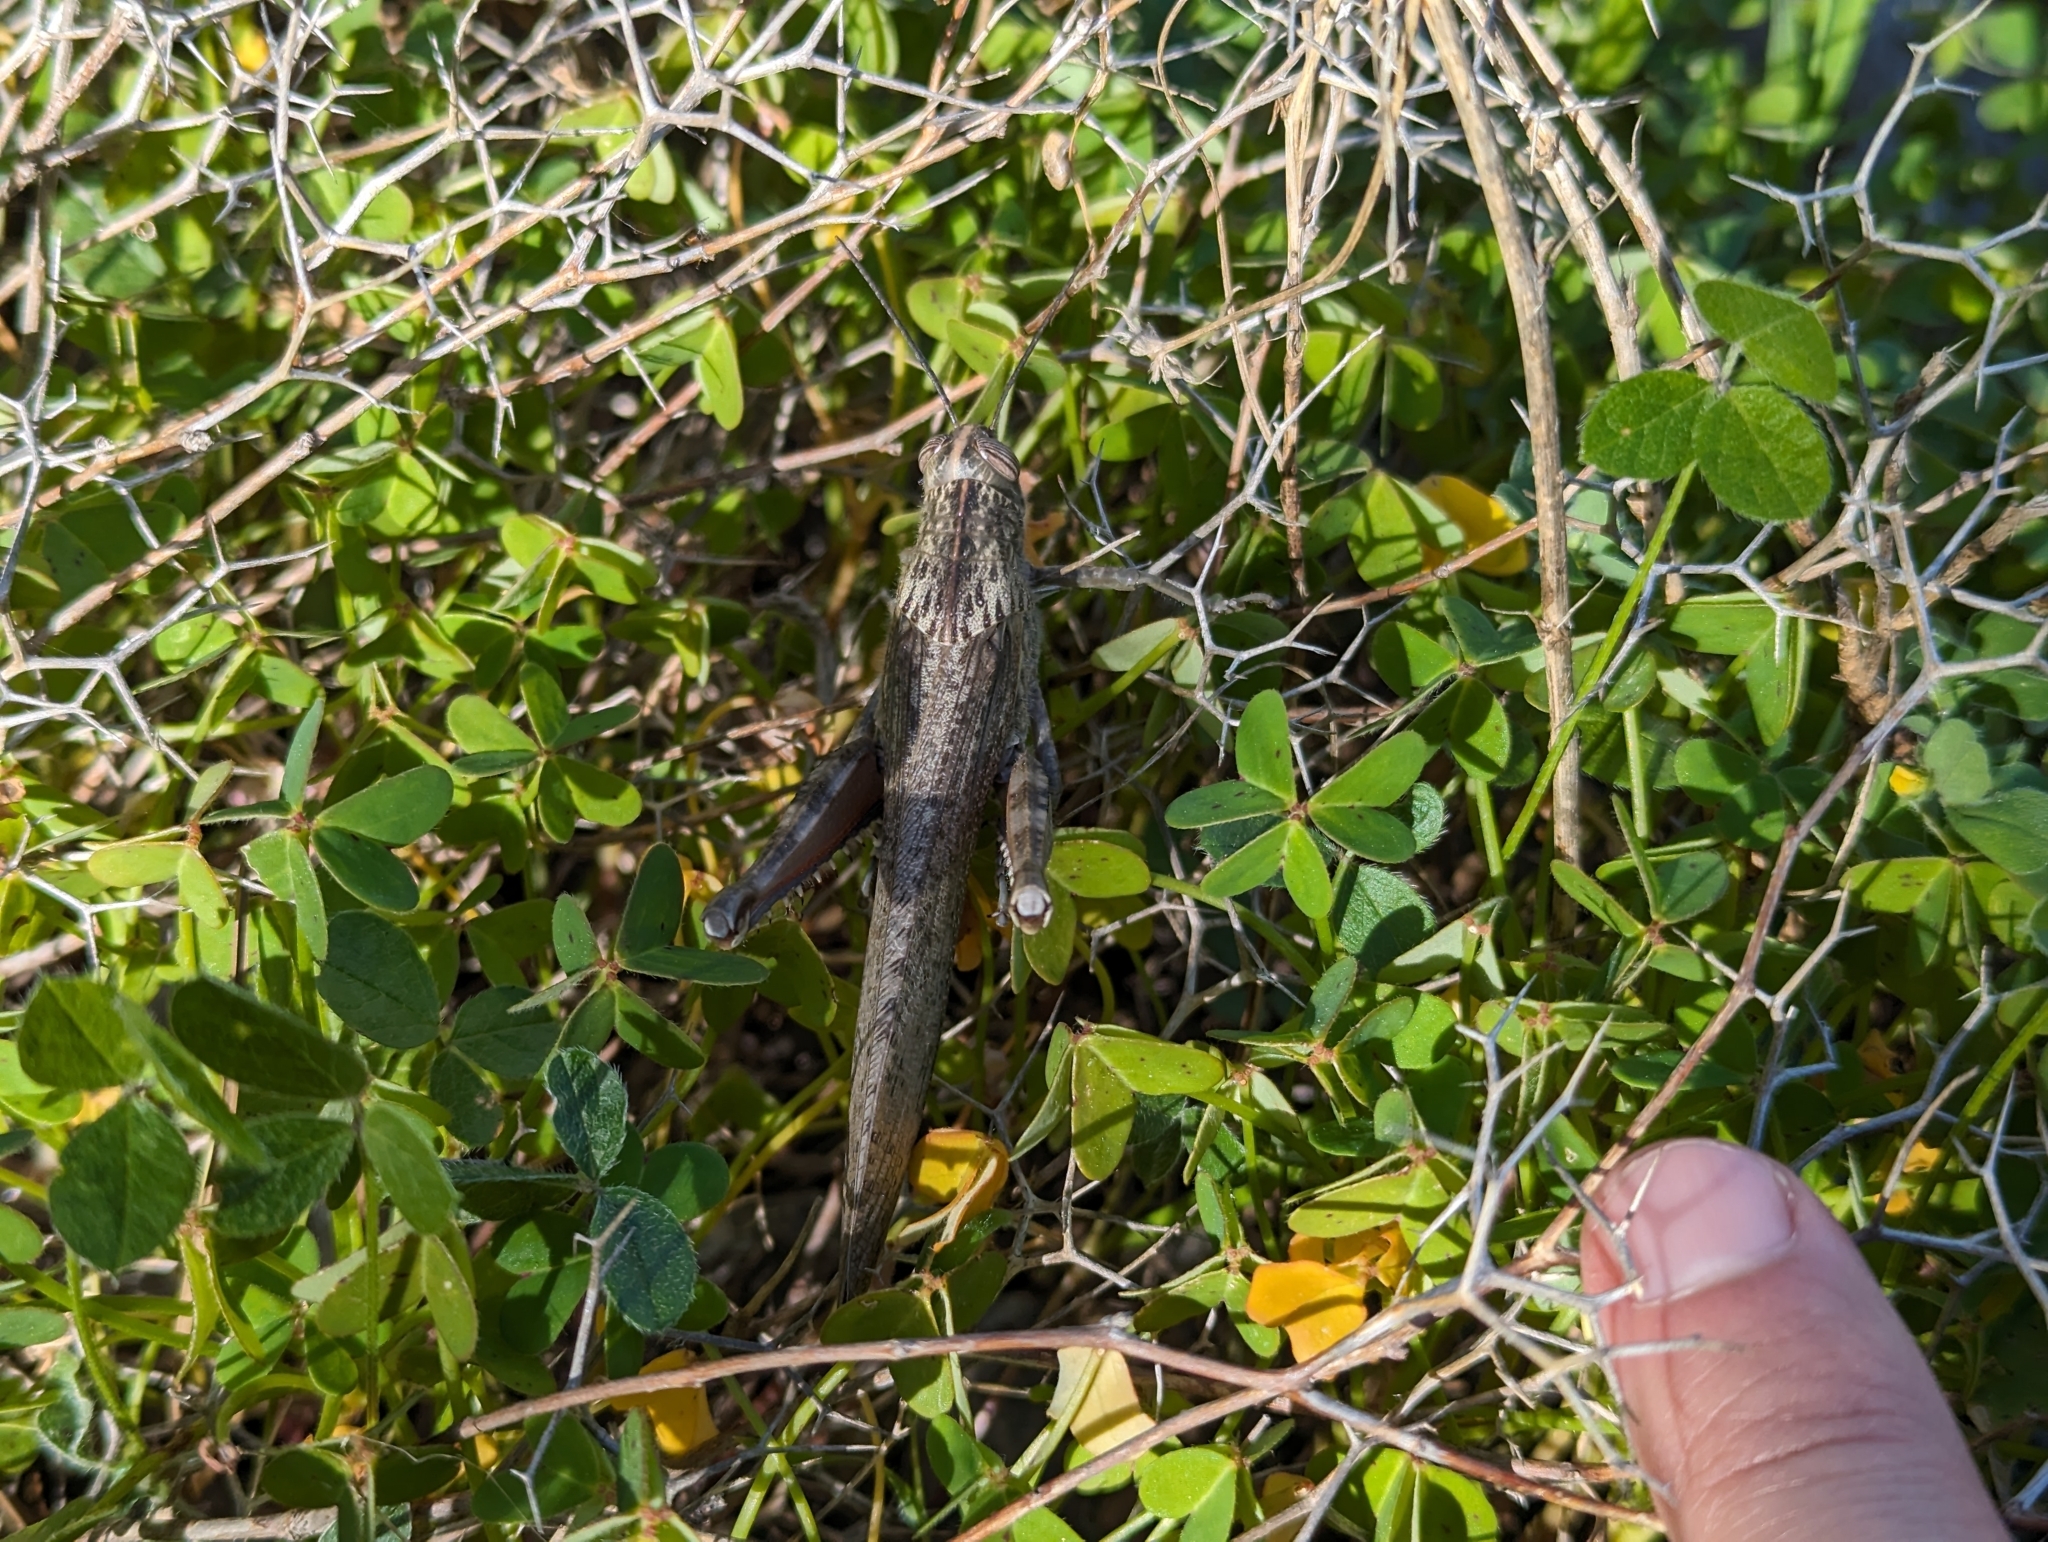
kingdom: Animalia
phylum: Arthropoda
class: Insecta
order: Orthoptera
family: Acrididae
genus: Anacridium
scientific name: Anacridium aegyptium
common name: Egyptian grasshopper
